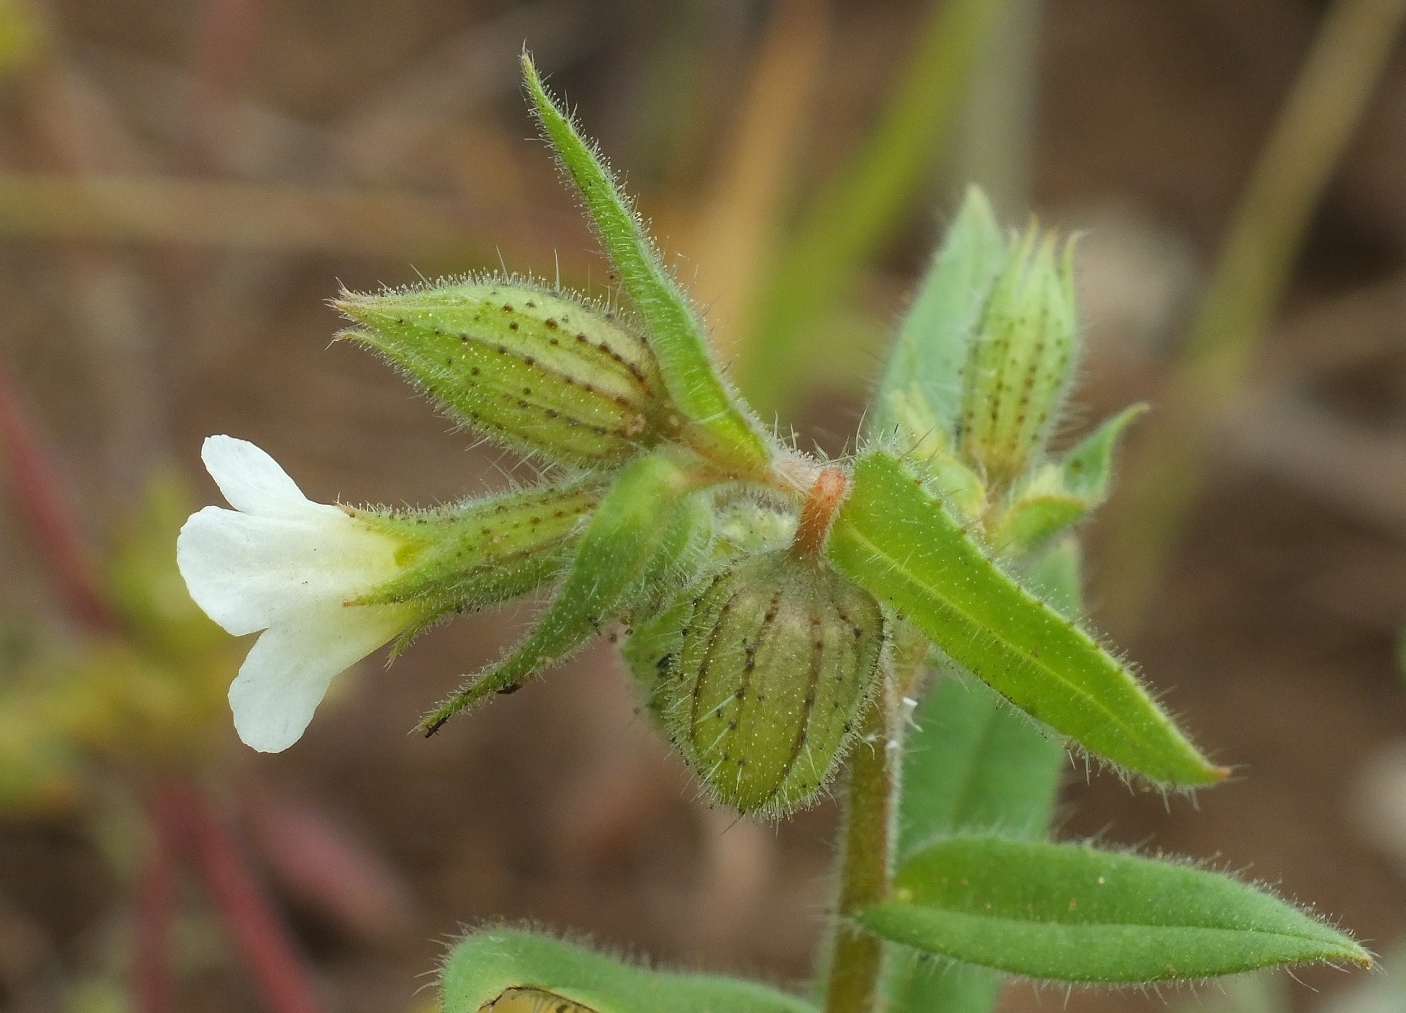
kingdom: Plantae
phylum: Tracheophyta
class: Magnoliopsida
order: Boraginales
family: Boraginaceae
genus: Nonea
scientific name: Nonea lutea
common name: Yellow nonea
